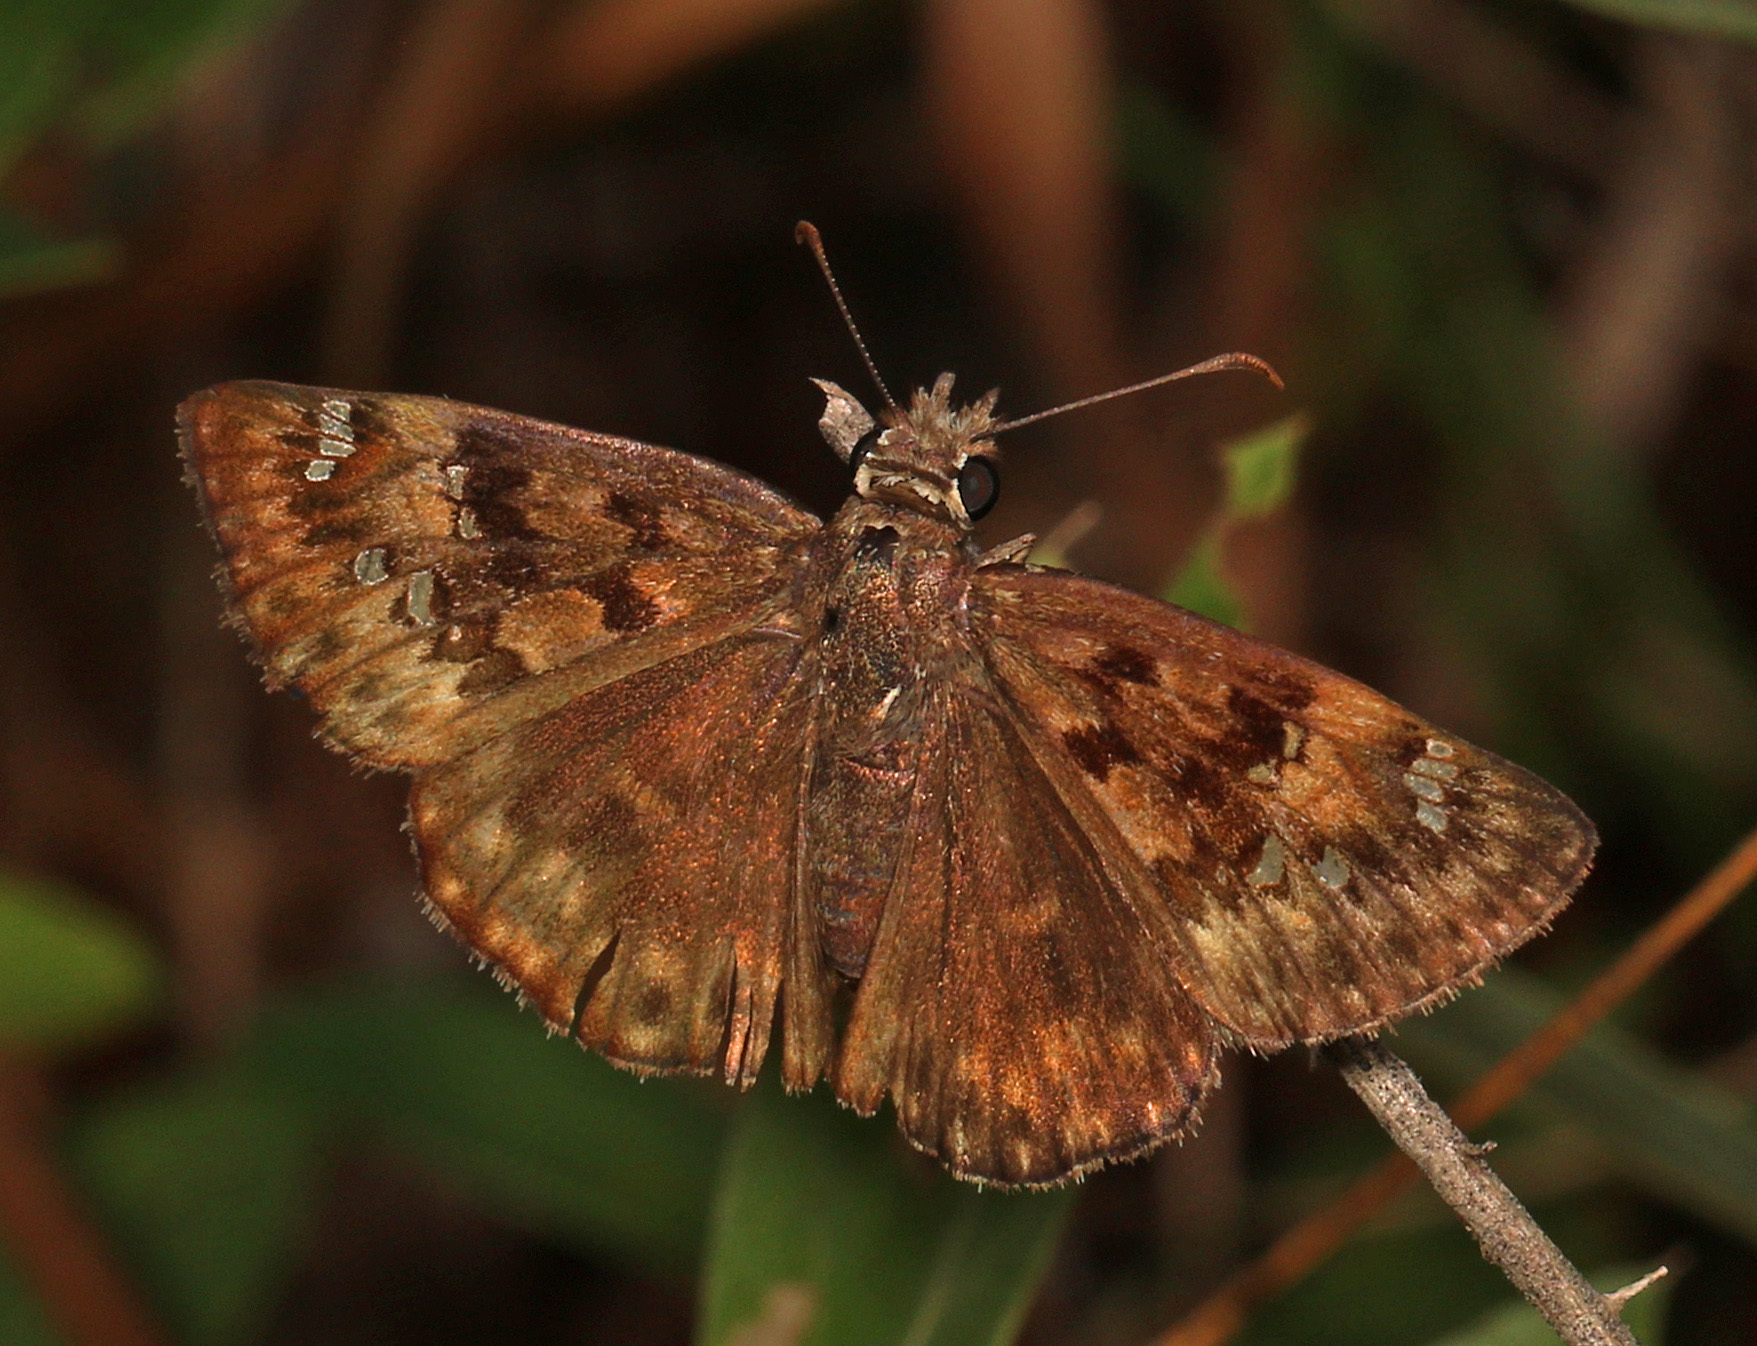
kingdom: Animalia
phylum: Arthropoda
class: Insecta
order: Lepidoptera
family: Hesperiidae
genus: Erynnis
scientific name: Erynnis horatius
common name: Horace's duskywing
